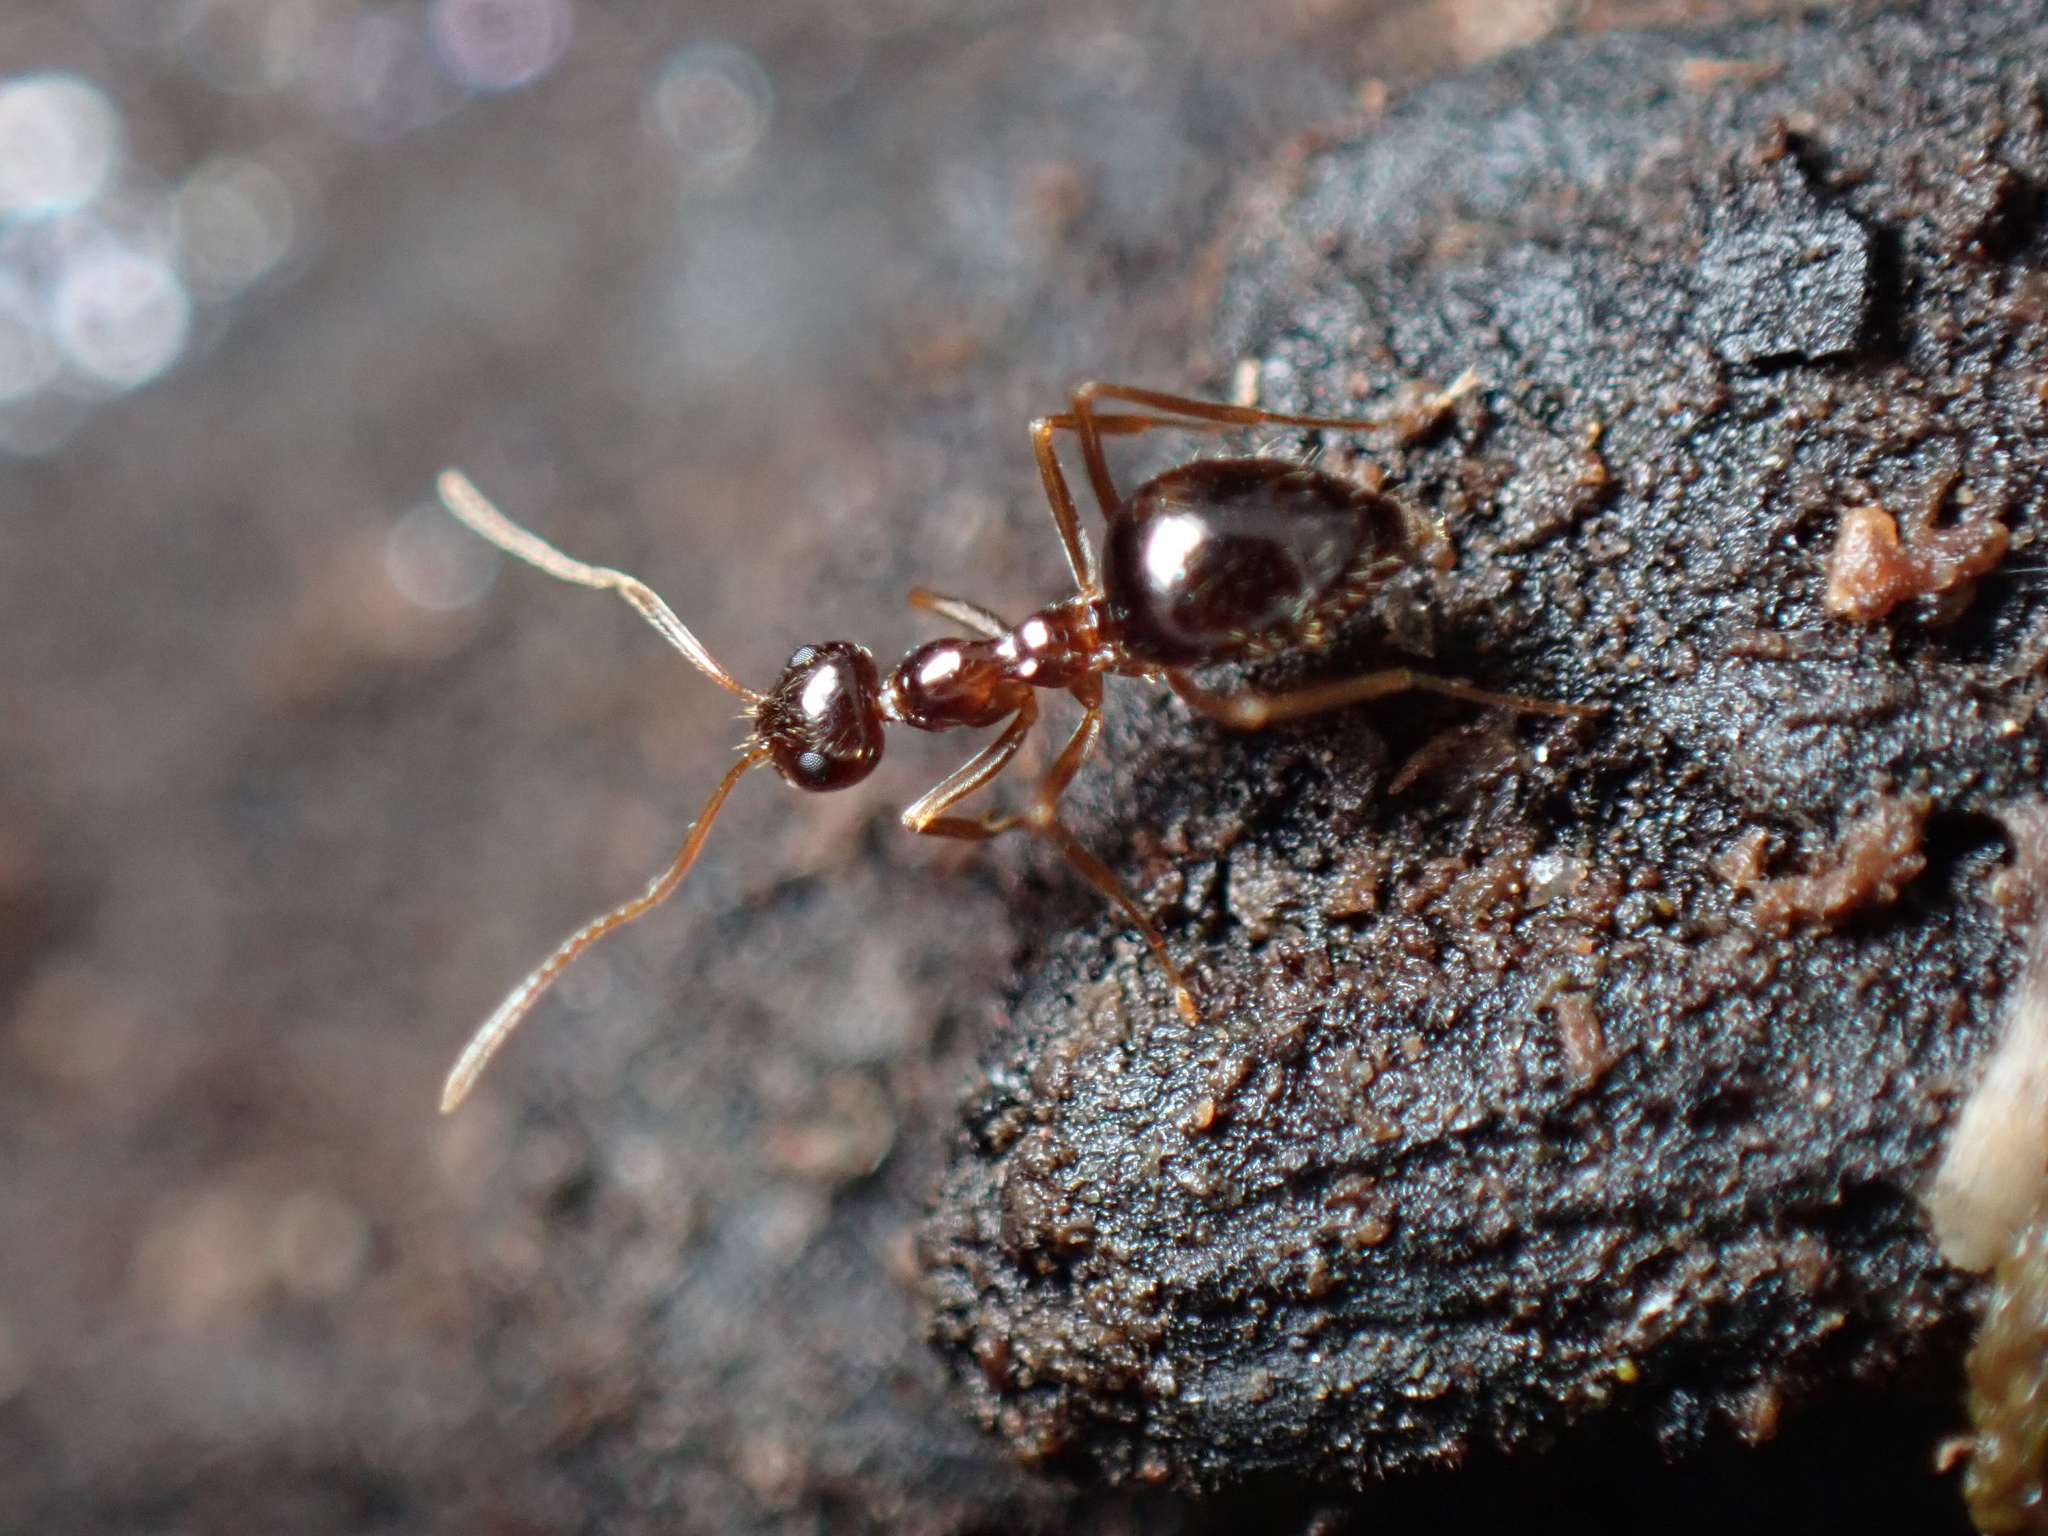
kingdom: Animalia
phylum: Arthropoda
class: Insecta
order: Hymenoptera
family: Formicidae
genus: Prenolepis
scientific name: Prenolepis imparis
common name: Small honey ant
